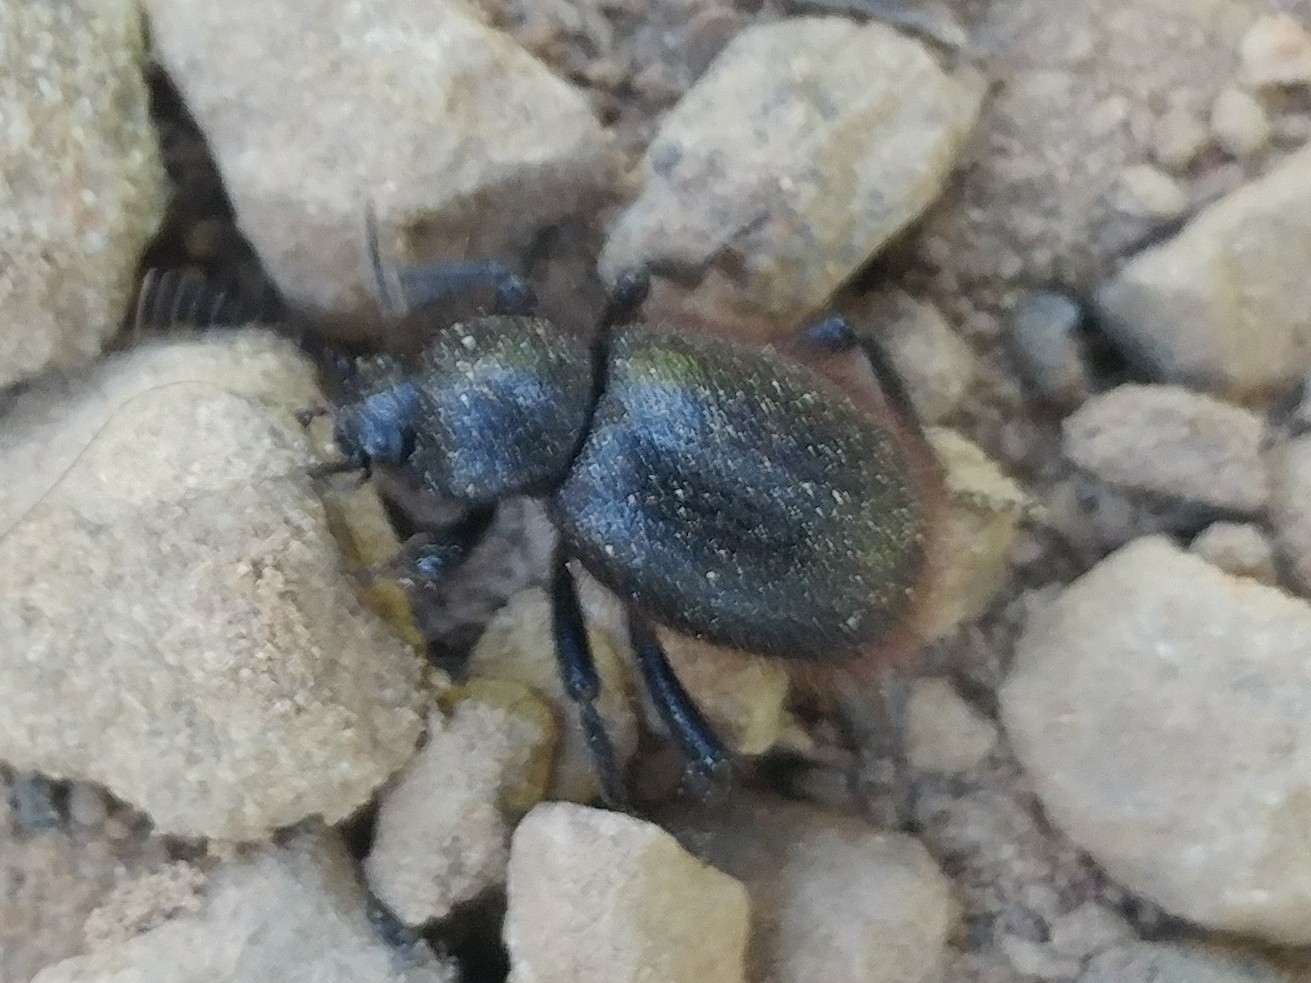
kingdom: Animalia
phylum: Arthropoda
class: Insecta
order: Coleoptera
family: Tenebrionidae
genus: Eleodes
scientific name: Eleodes osculans
